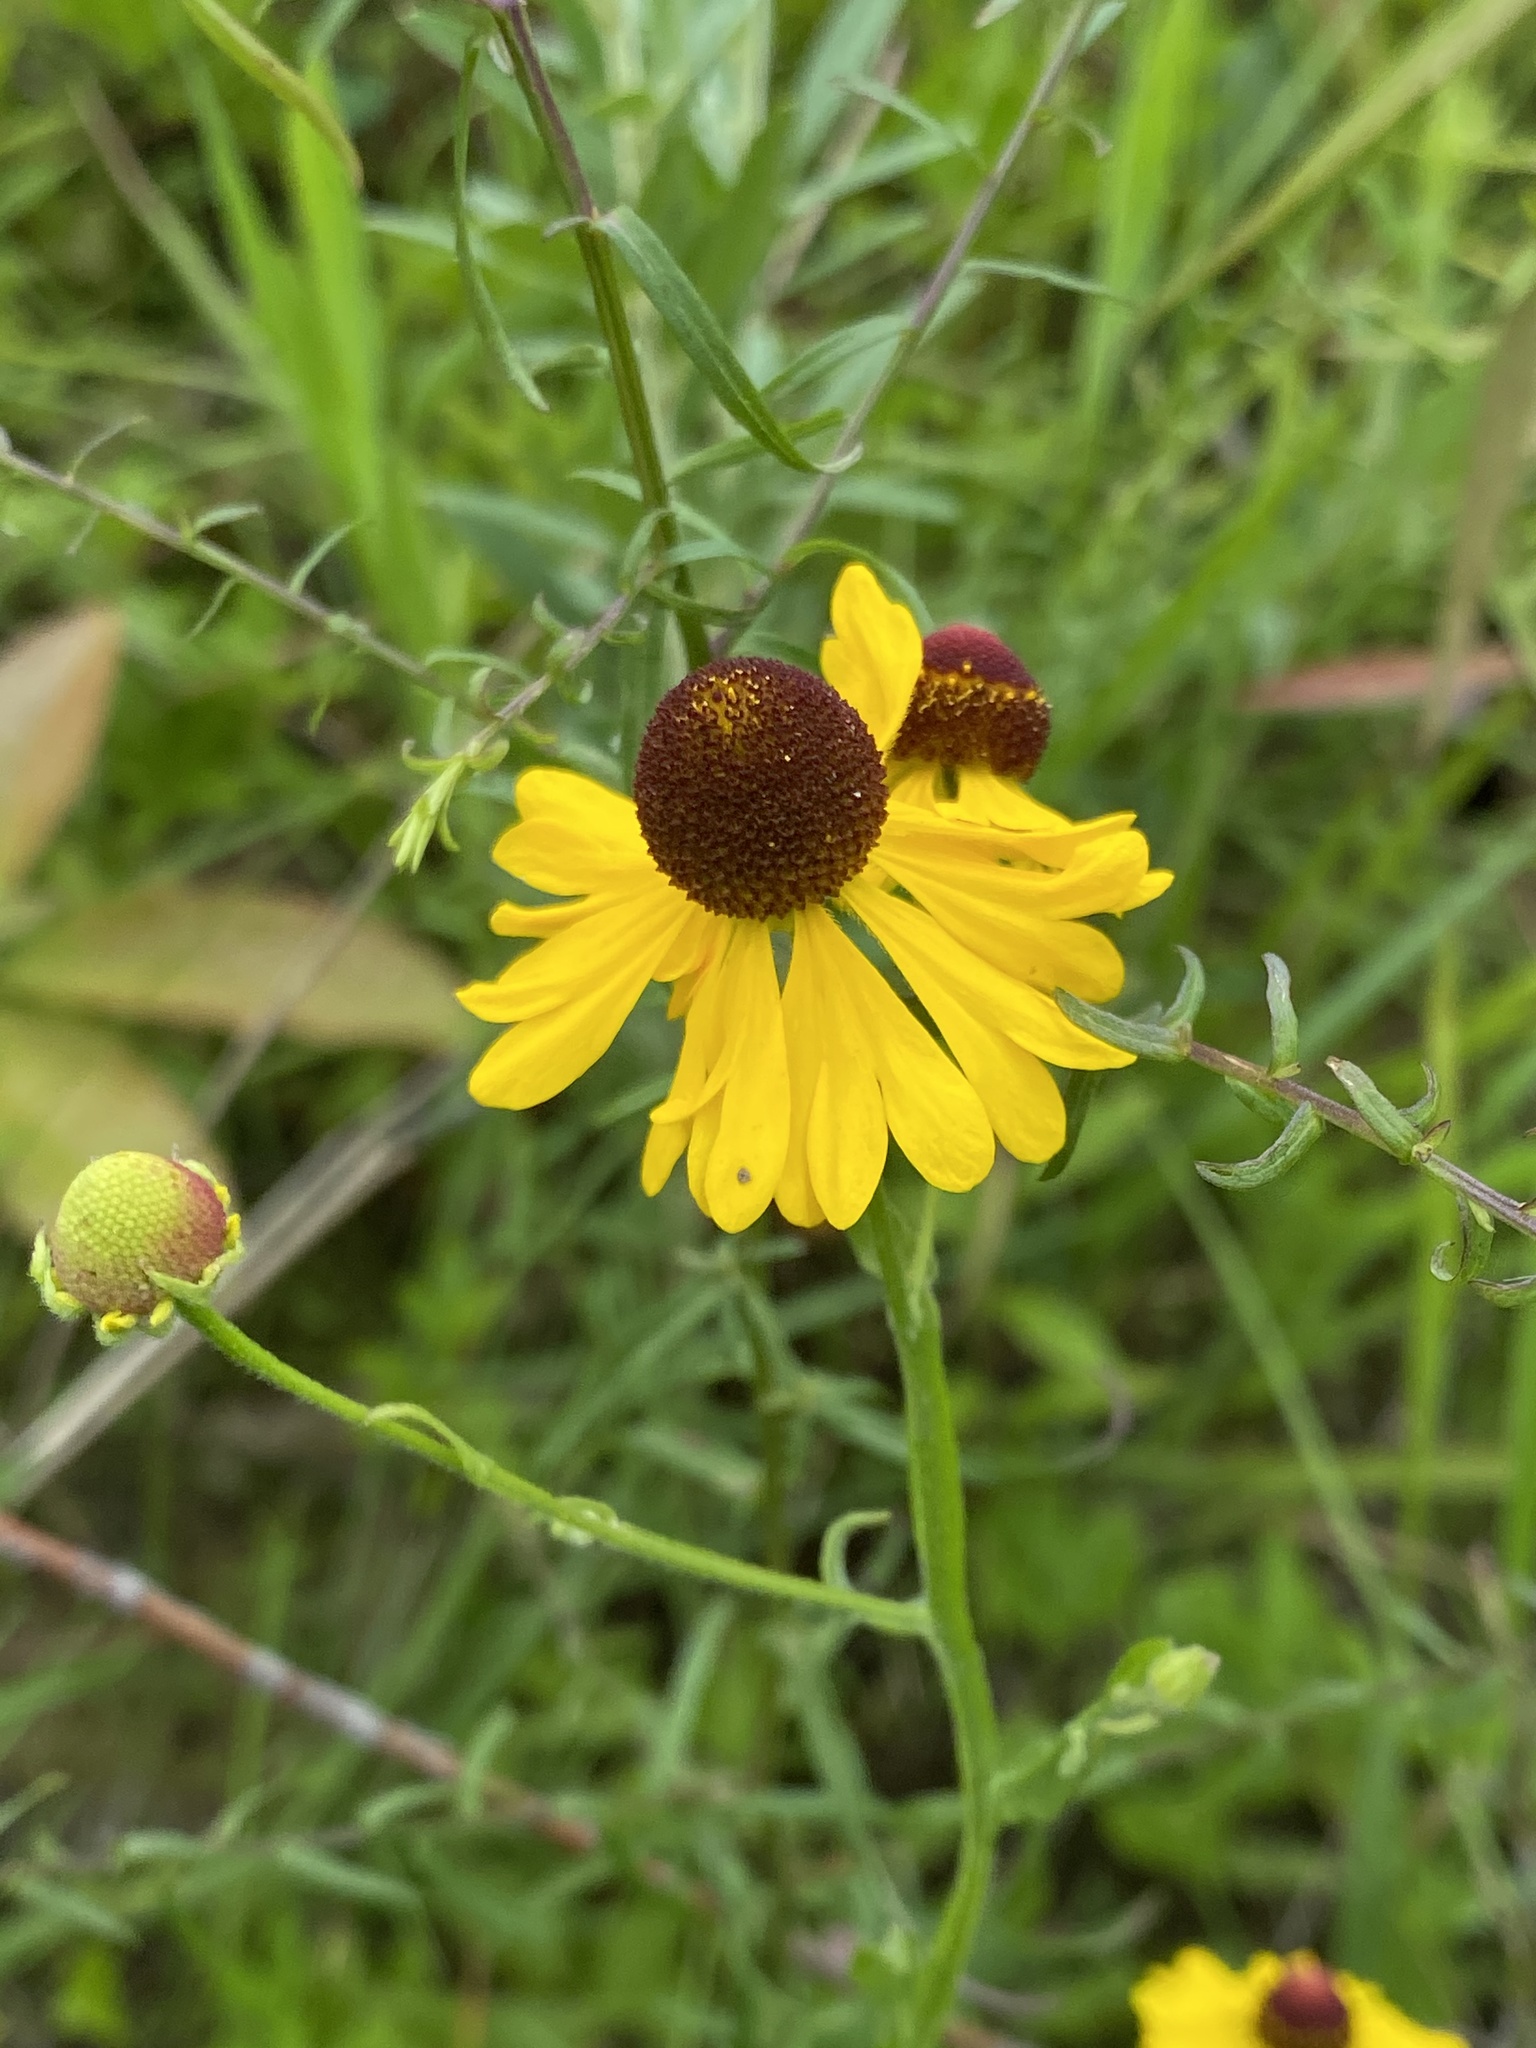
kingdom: Plantae
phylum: Tracheophyta
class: Magnoliopsida
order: Asterales
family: Asteraceae
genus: Helenium
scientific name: Helenium flexuosum
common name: Naked-flowered sneezeweed
